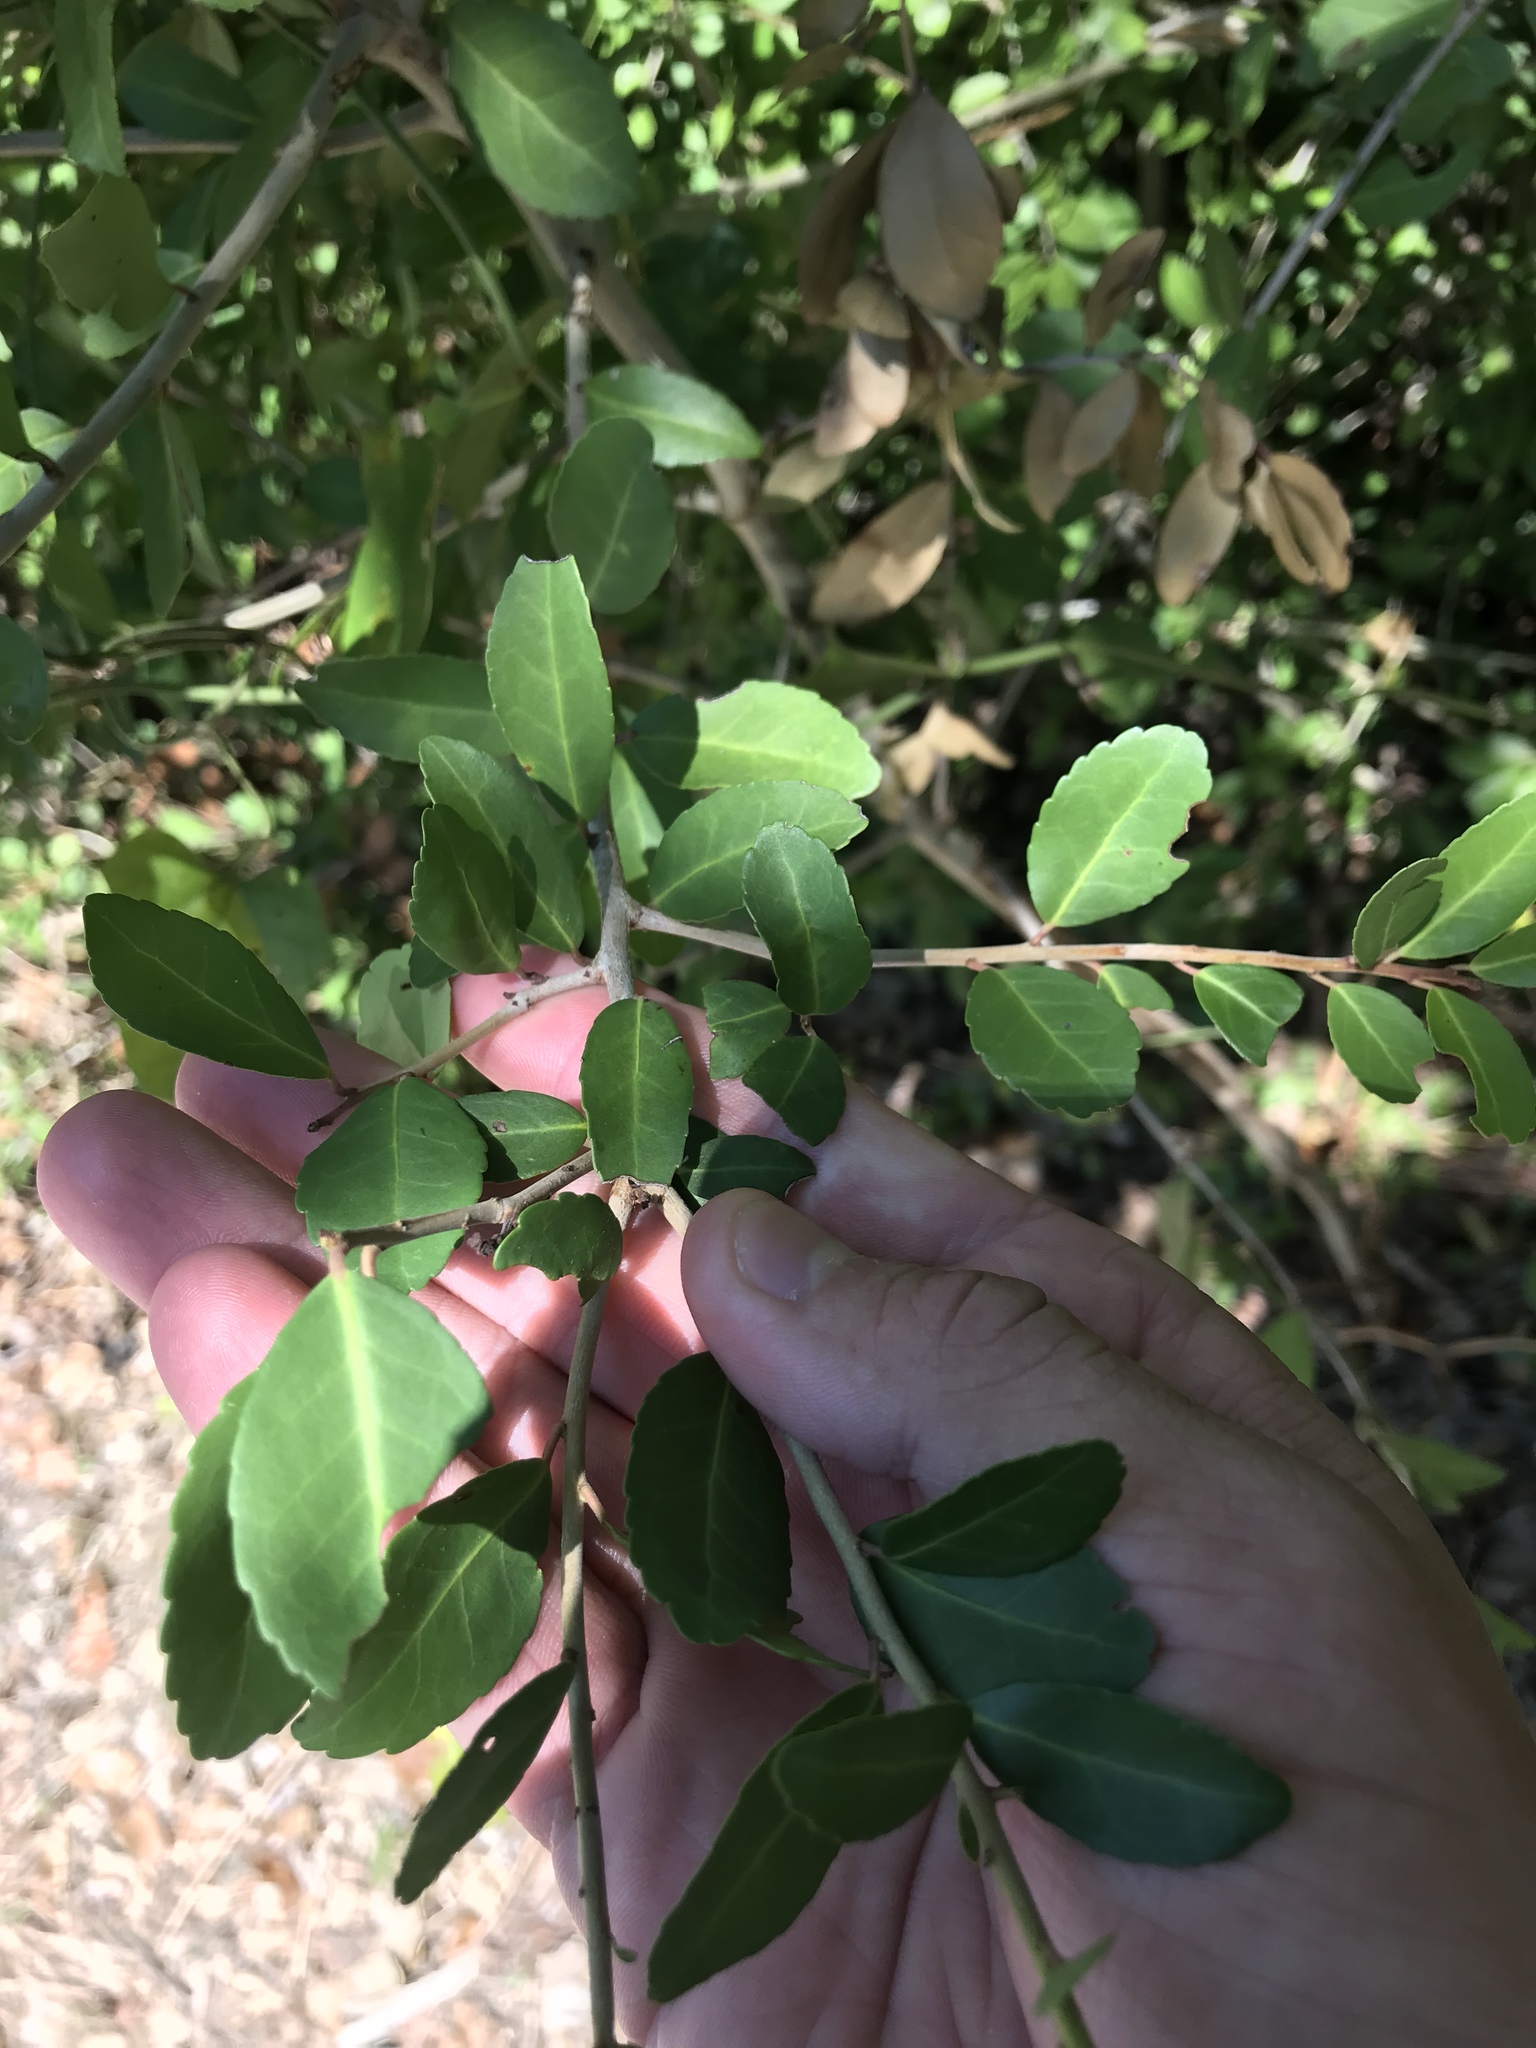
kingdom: Plantae
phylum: Tracheophyta
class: Magnoliopsida
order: Aquifoliales
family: Aquifoliaceae
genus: Ilex
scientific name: Ilex vomitoria
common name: Yaupon holly
